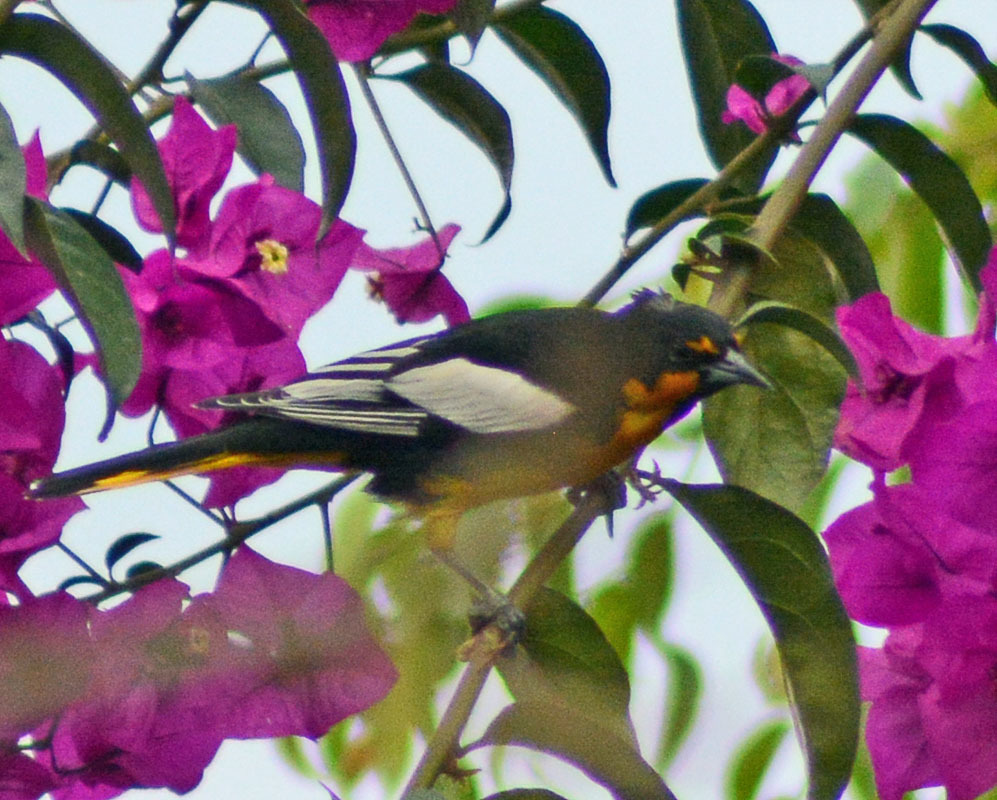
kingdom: Animalia
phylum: Chordata
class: Aves
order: Passeriformes
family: Icteridae
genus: Icterus
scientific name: Icterus abeillei
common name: Black-backed oriole
